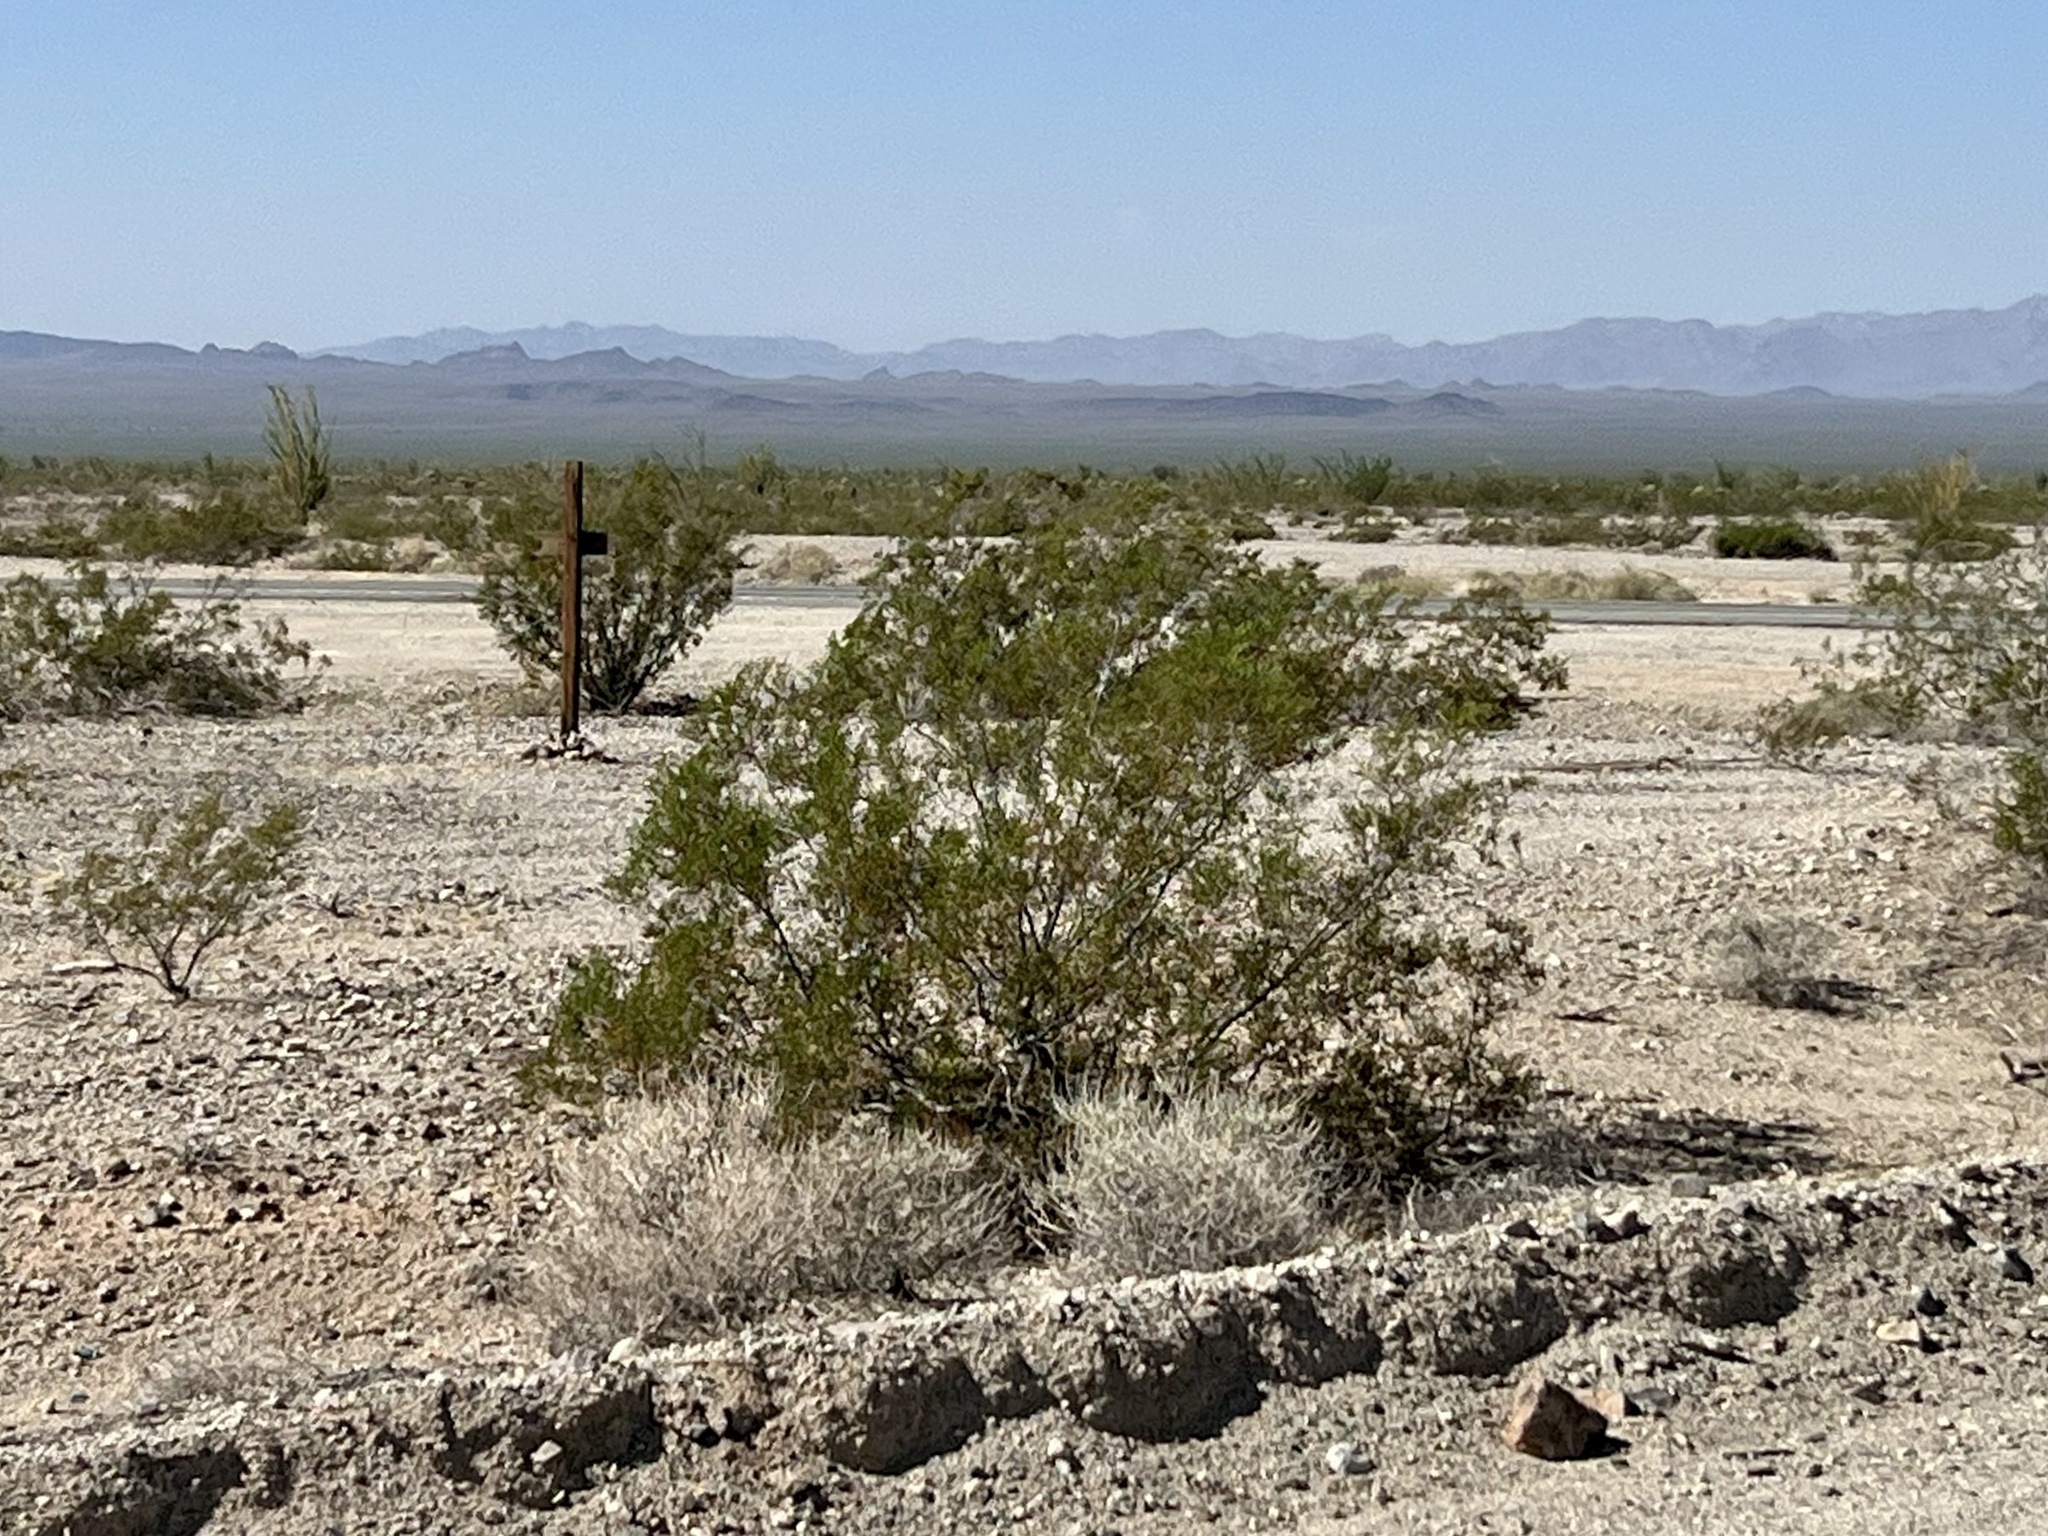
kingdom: Plantae
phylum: Tracheophyta
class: Magnoliopsida
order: Zygophyllales
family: Zygophyllaceae
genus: Larrea
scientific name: Larrea tridentata
